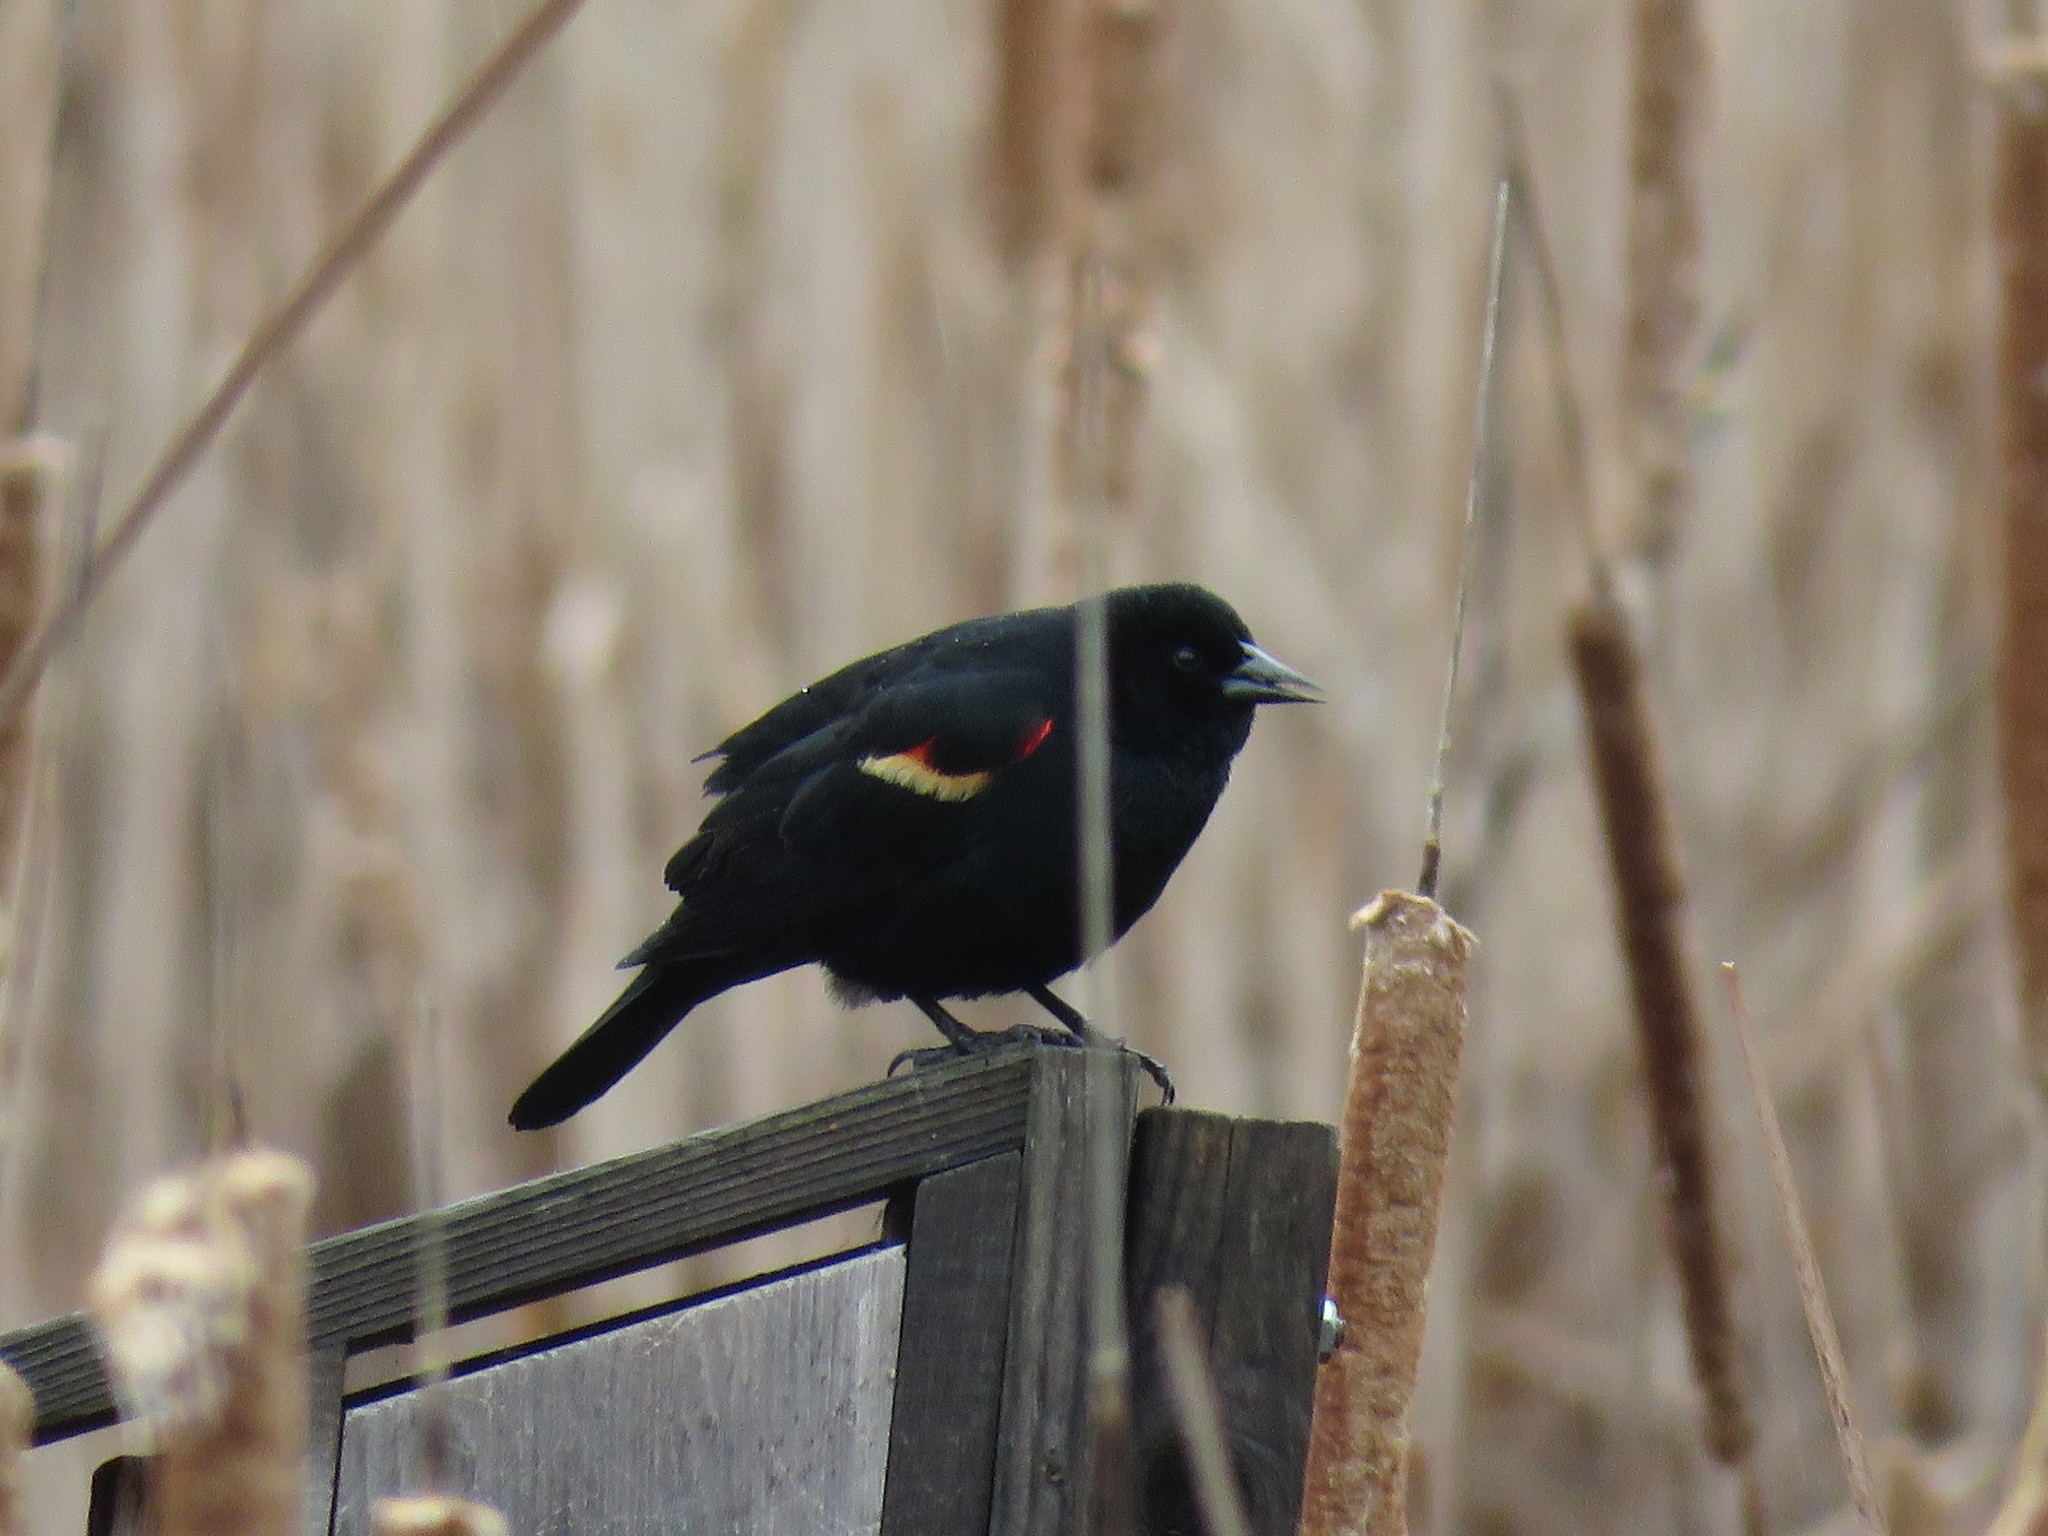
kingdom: Animalia
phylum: Chordata
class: Aves
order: Passeriformes
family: Icteridae
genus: Agelaius
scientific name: Agelaius phoeniceus
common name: Red-winged blackbird
